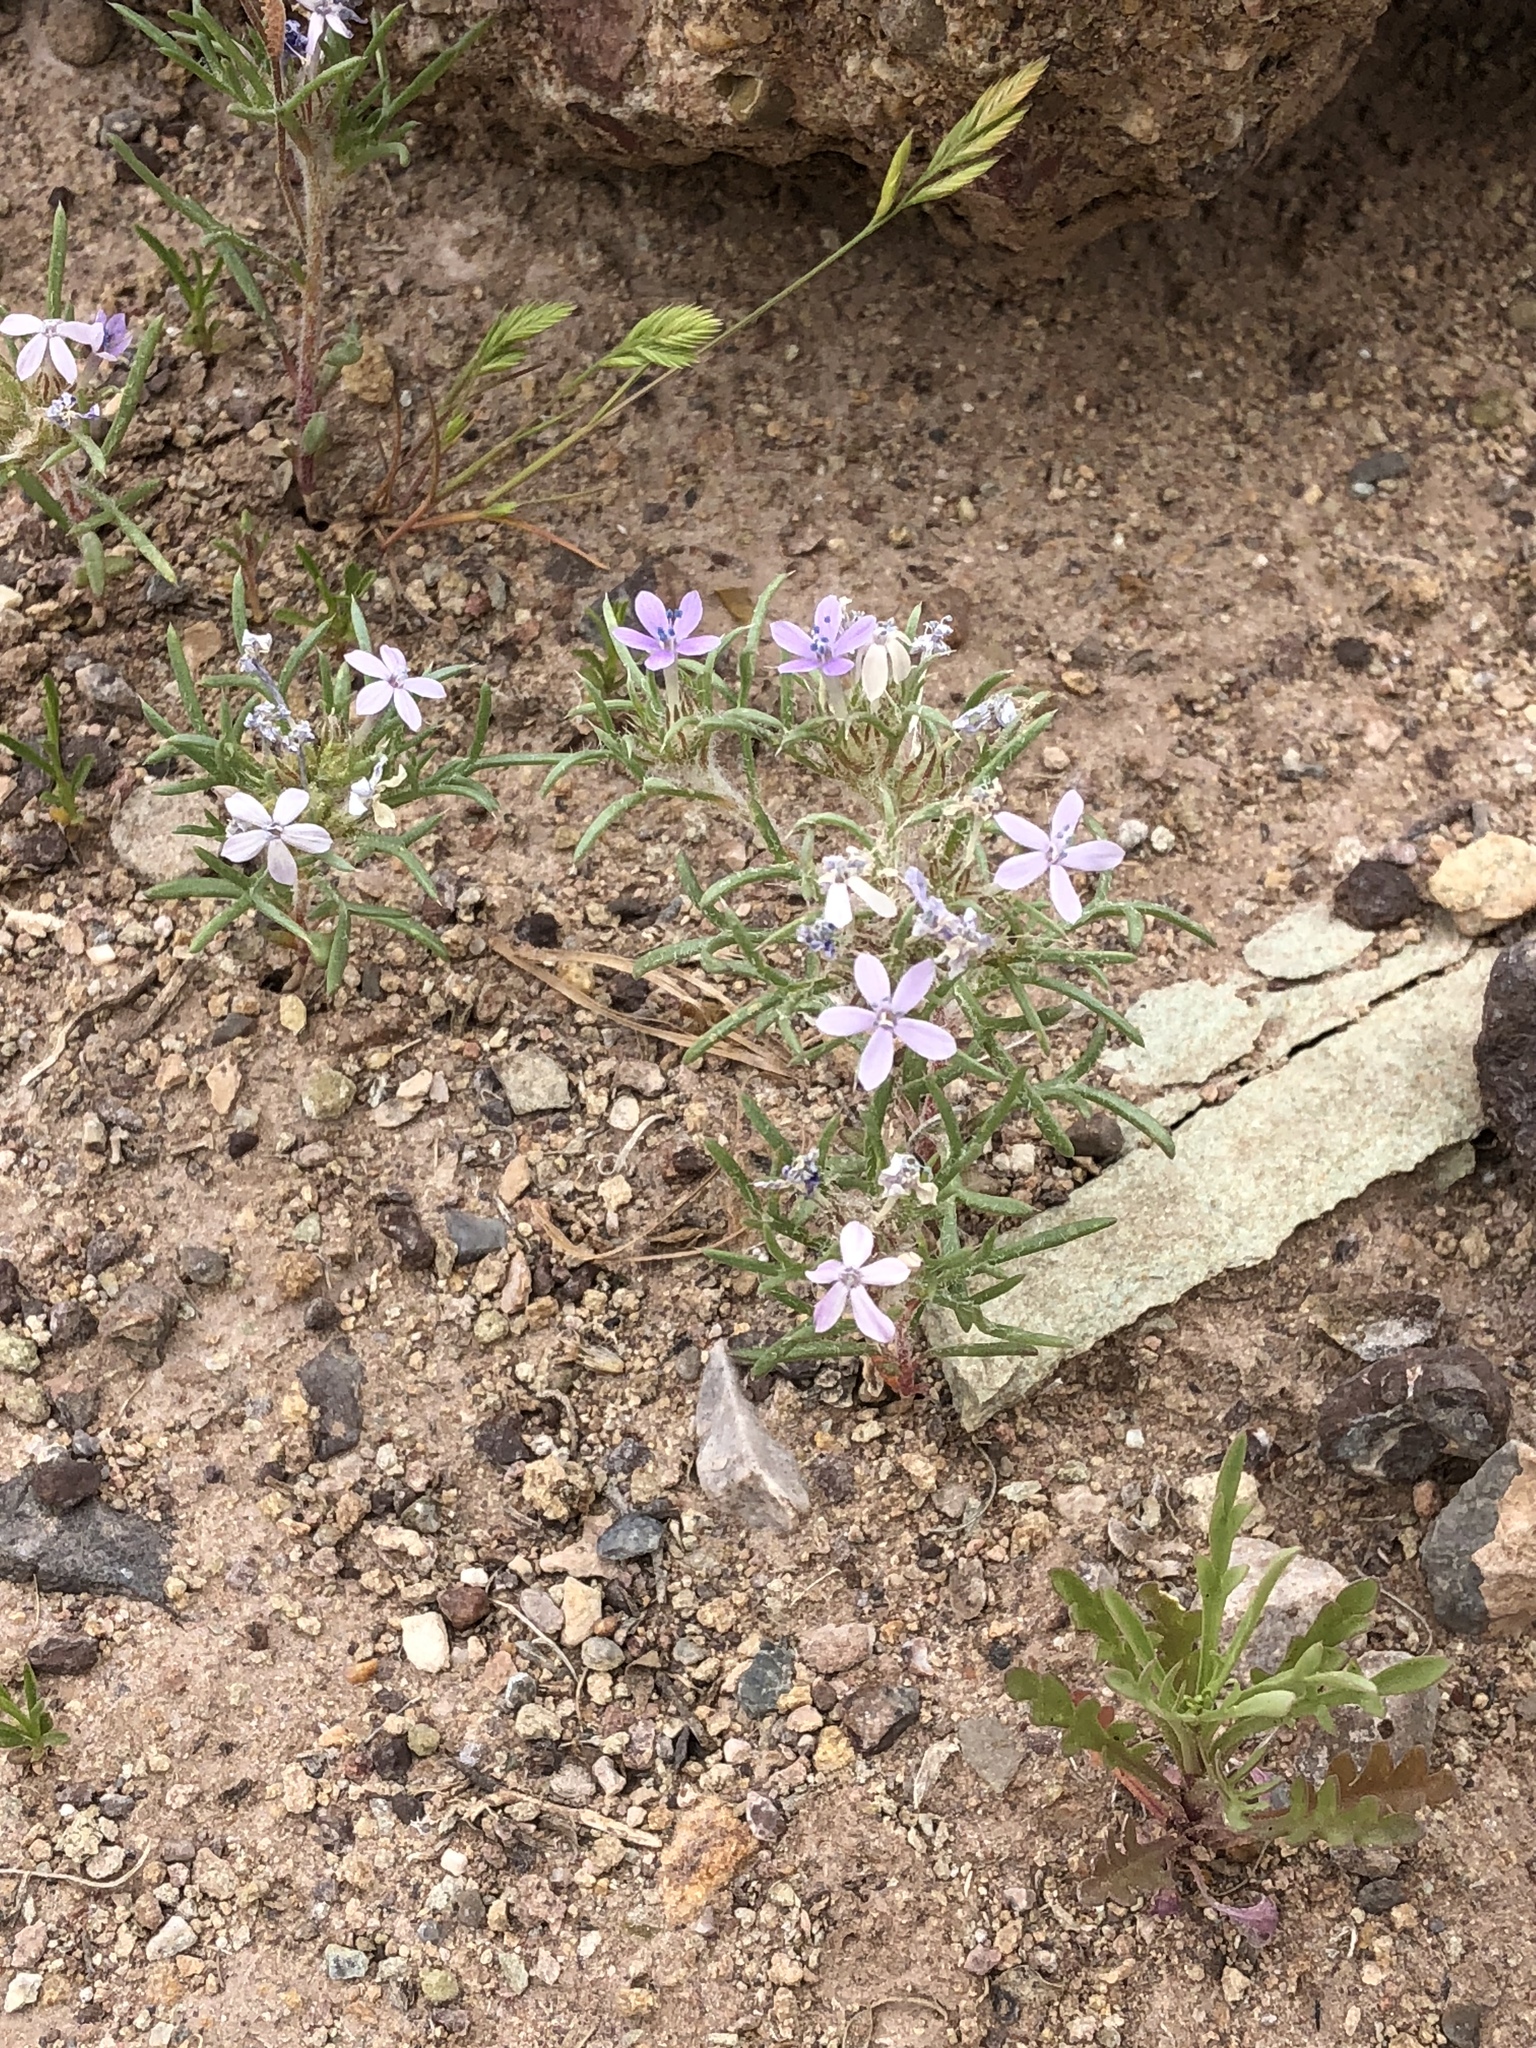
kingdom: Plantae
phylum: Tracheophyta
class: Magnoliopsida
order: Ericales
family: Polemoniaceae
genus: Ipomopsis
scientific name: Ipomopsis pumila
